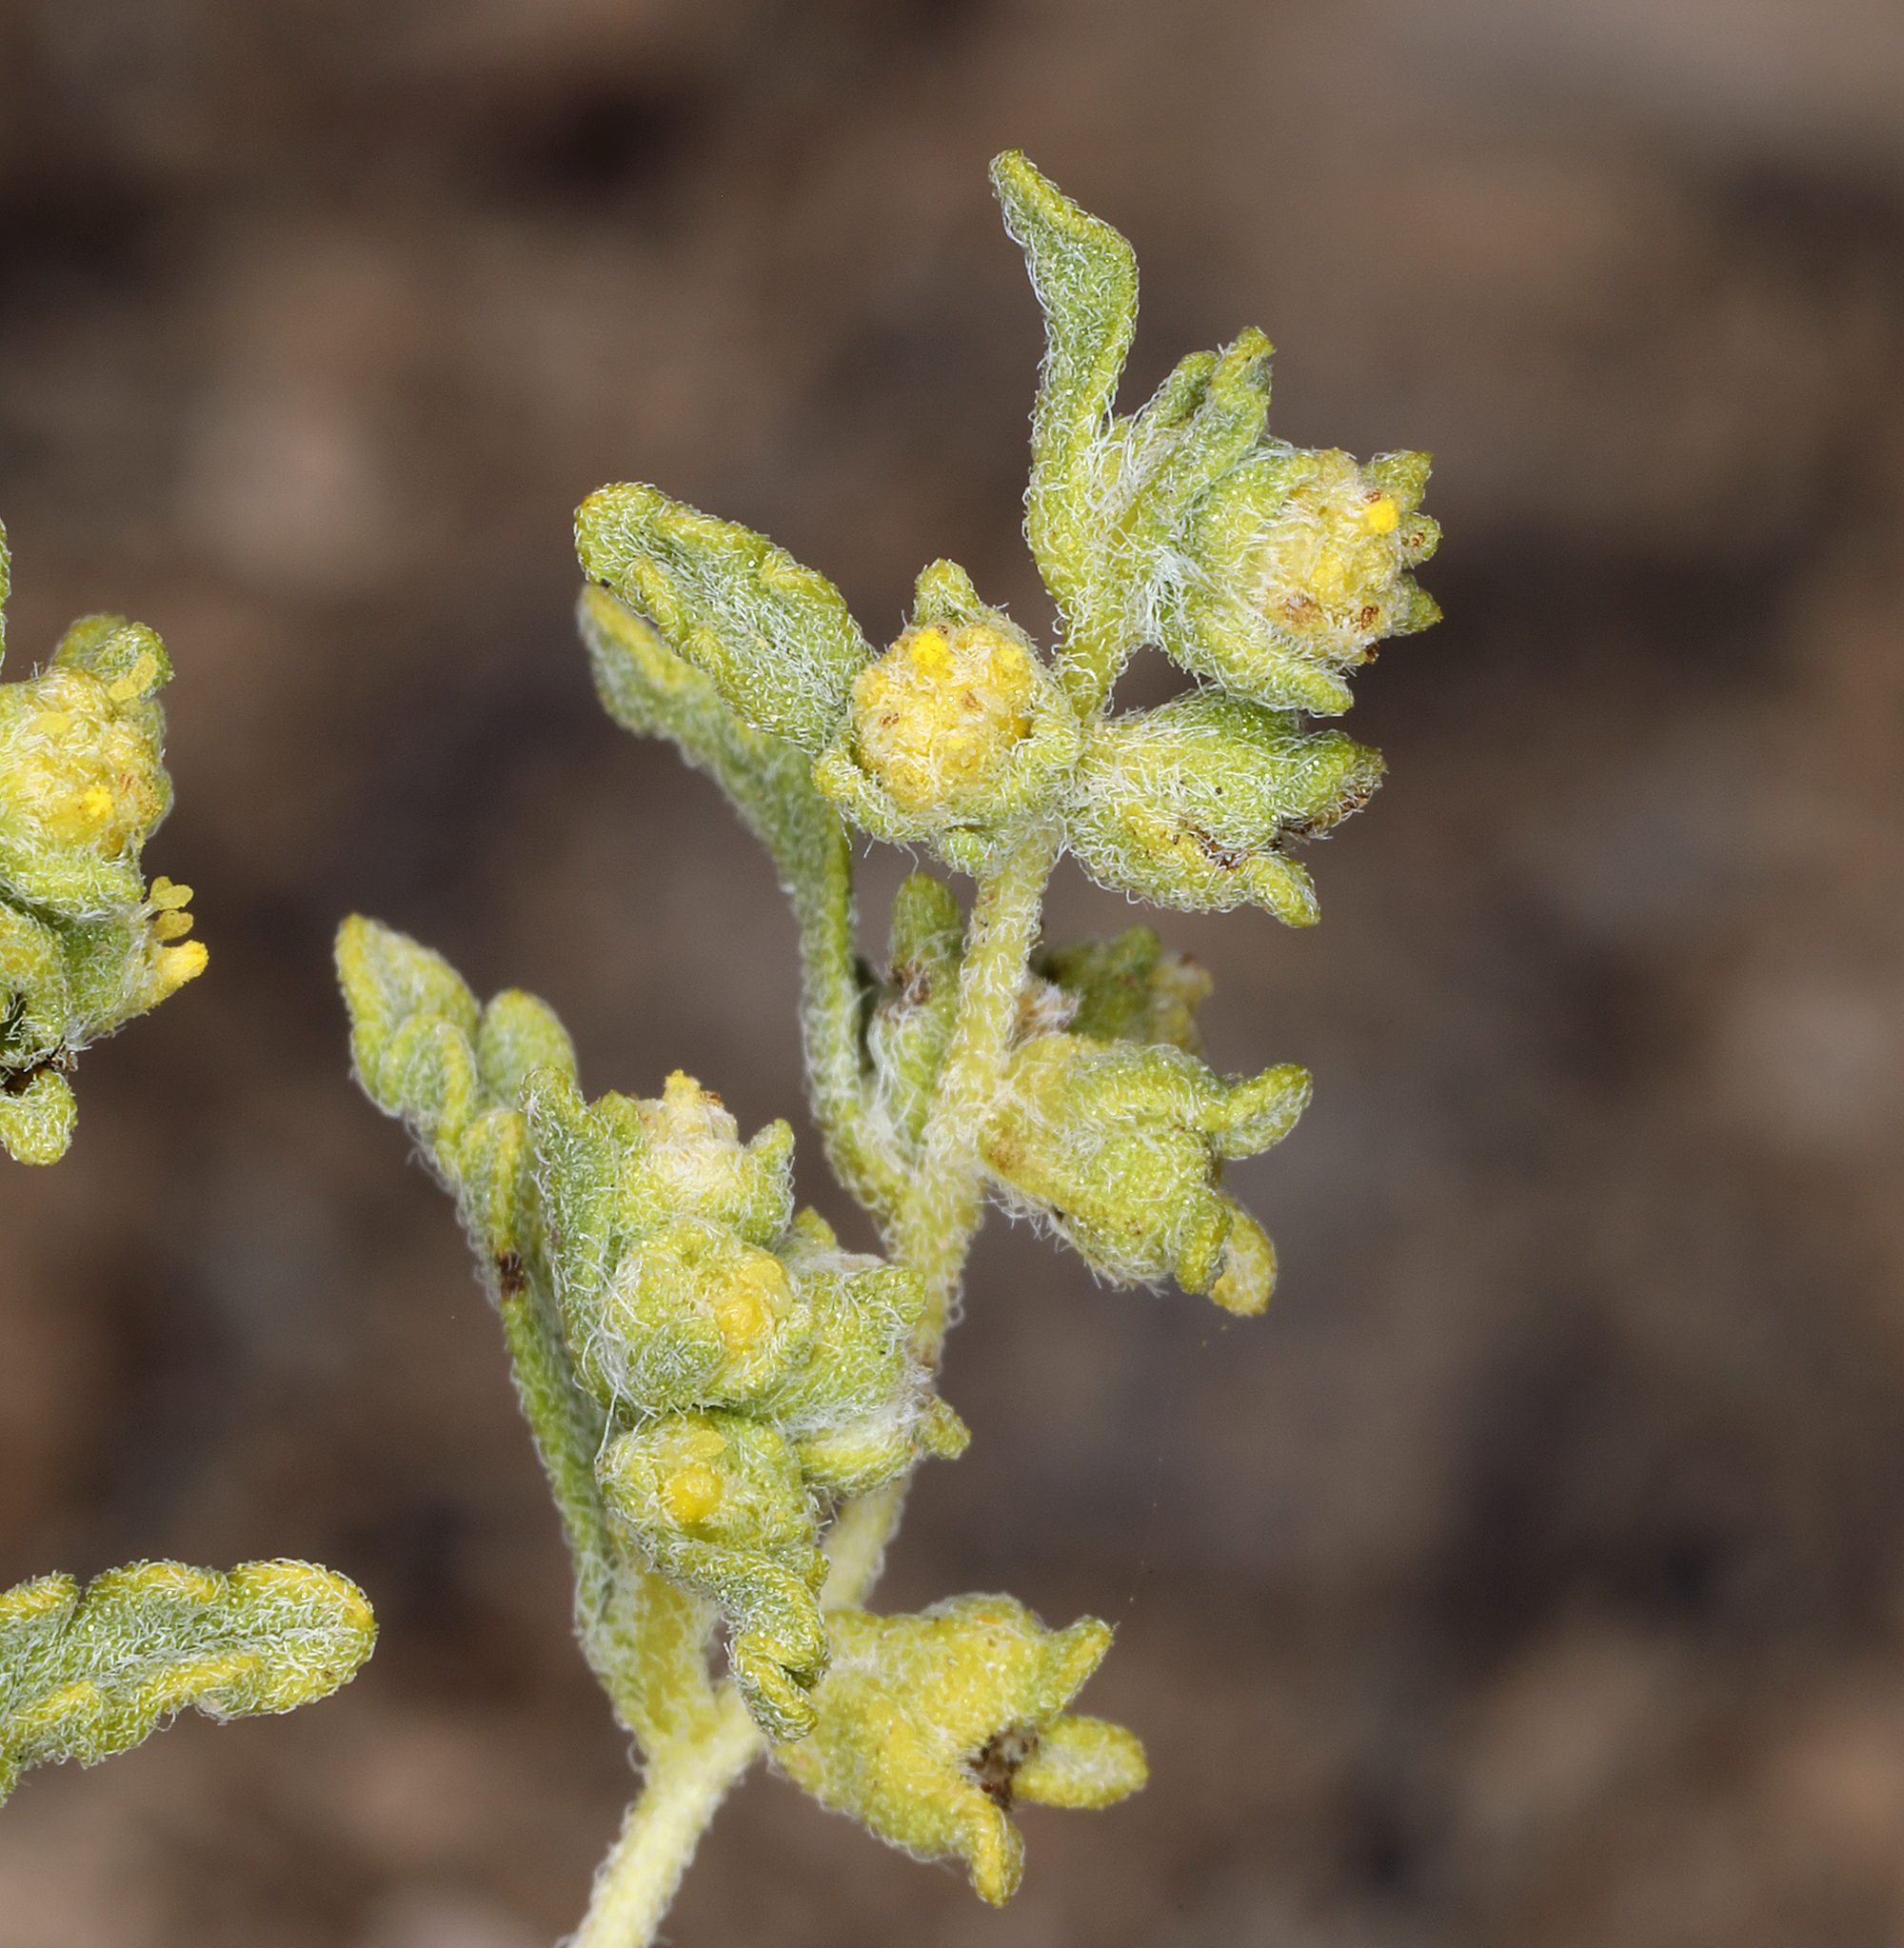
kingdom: Plantae
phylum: Tracheophyta
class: Magnoliopsida
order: Asterales
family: Asteraceae
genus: Euphrosyne
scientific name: Euphrosyne nevadensis
